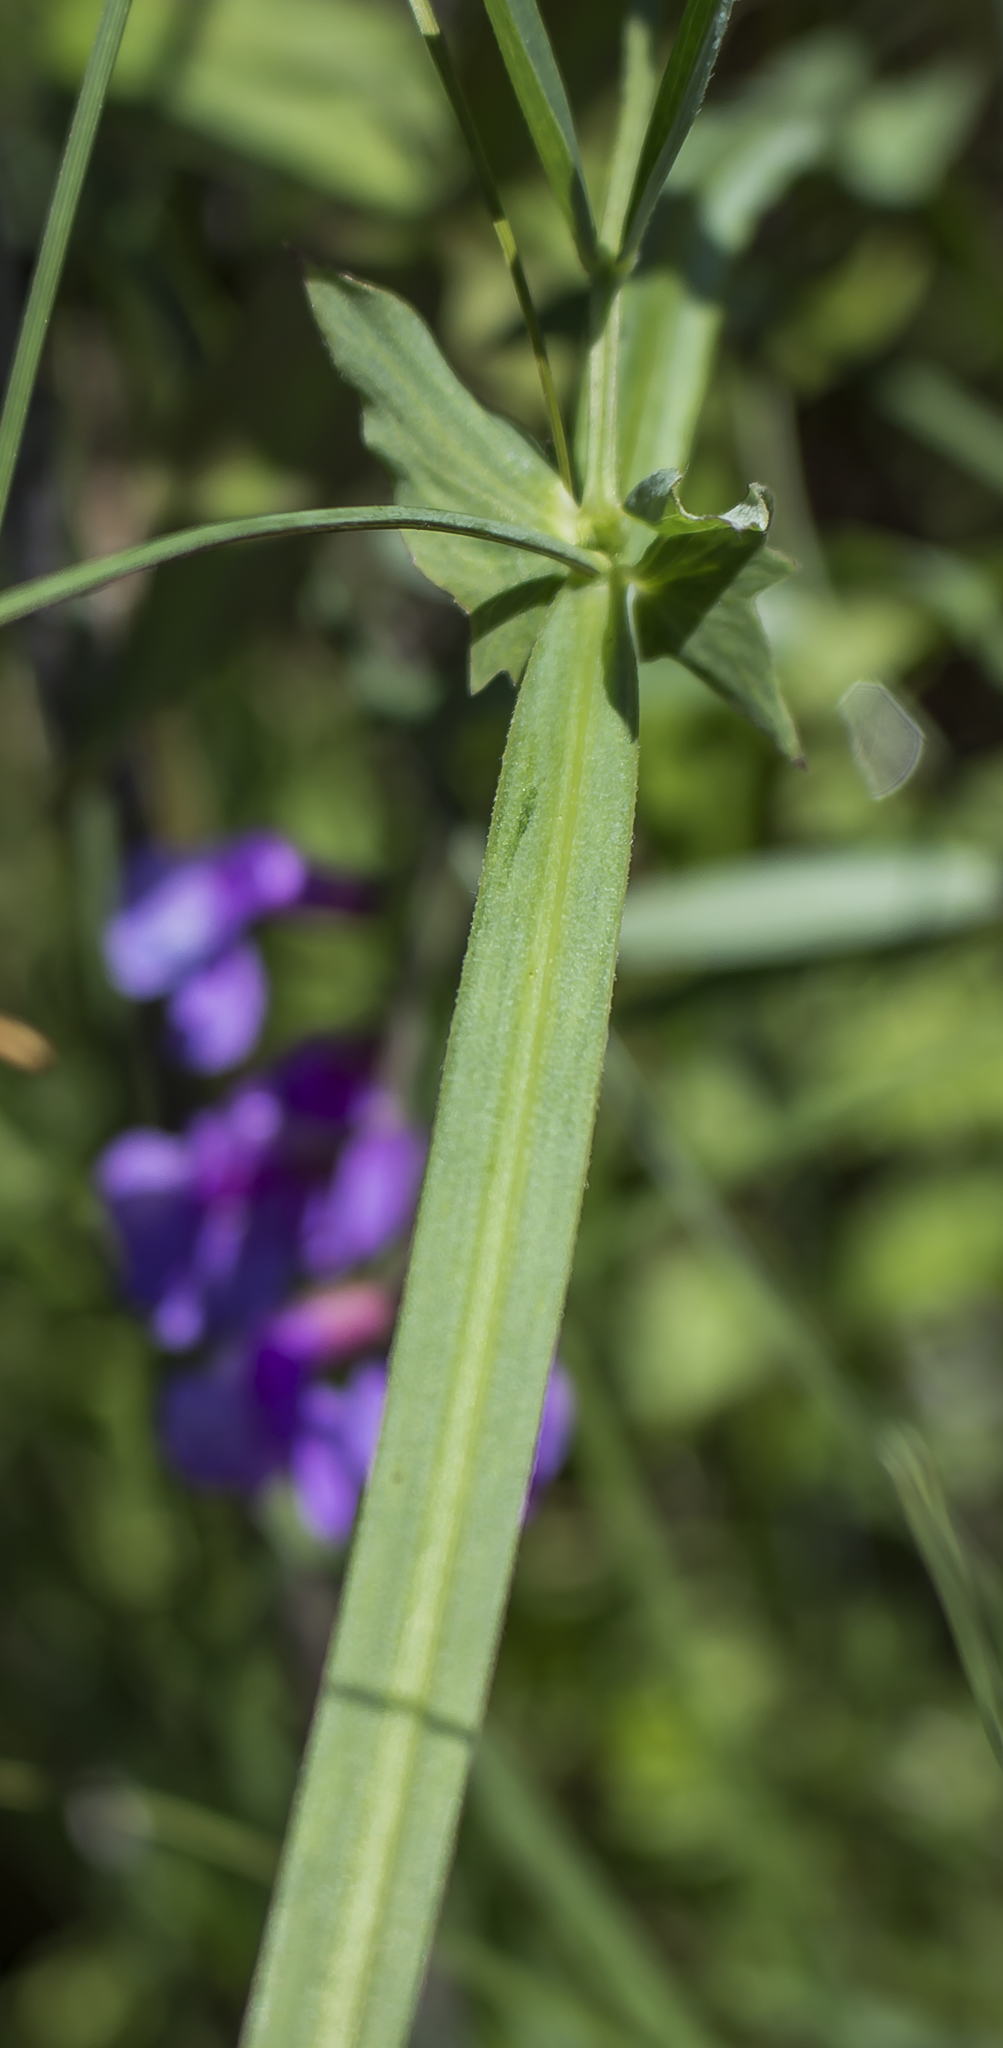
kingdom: Plantae
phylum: Tracheophyta
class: Magnoliopsida
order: Fabales
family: Fabaceae
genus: Lathyrus
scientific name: Lathyrus palustris
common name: Marsh pea
